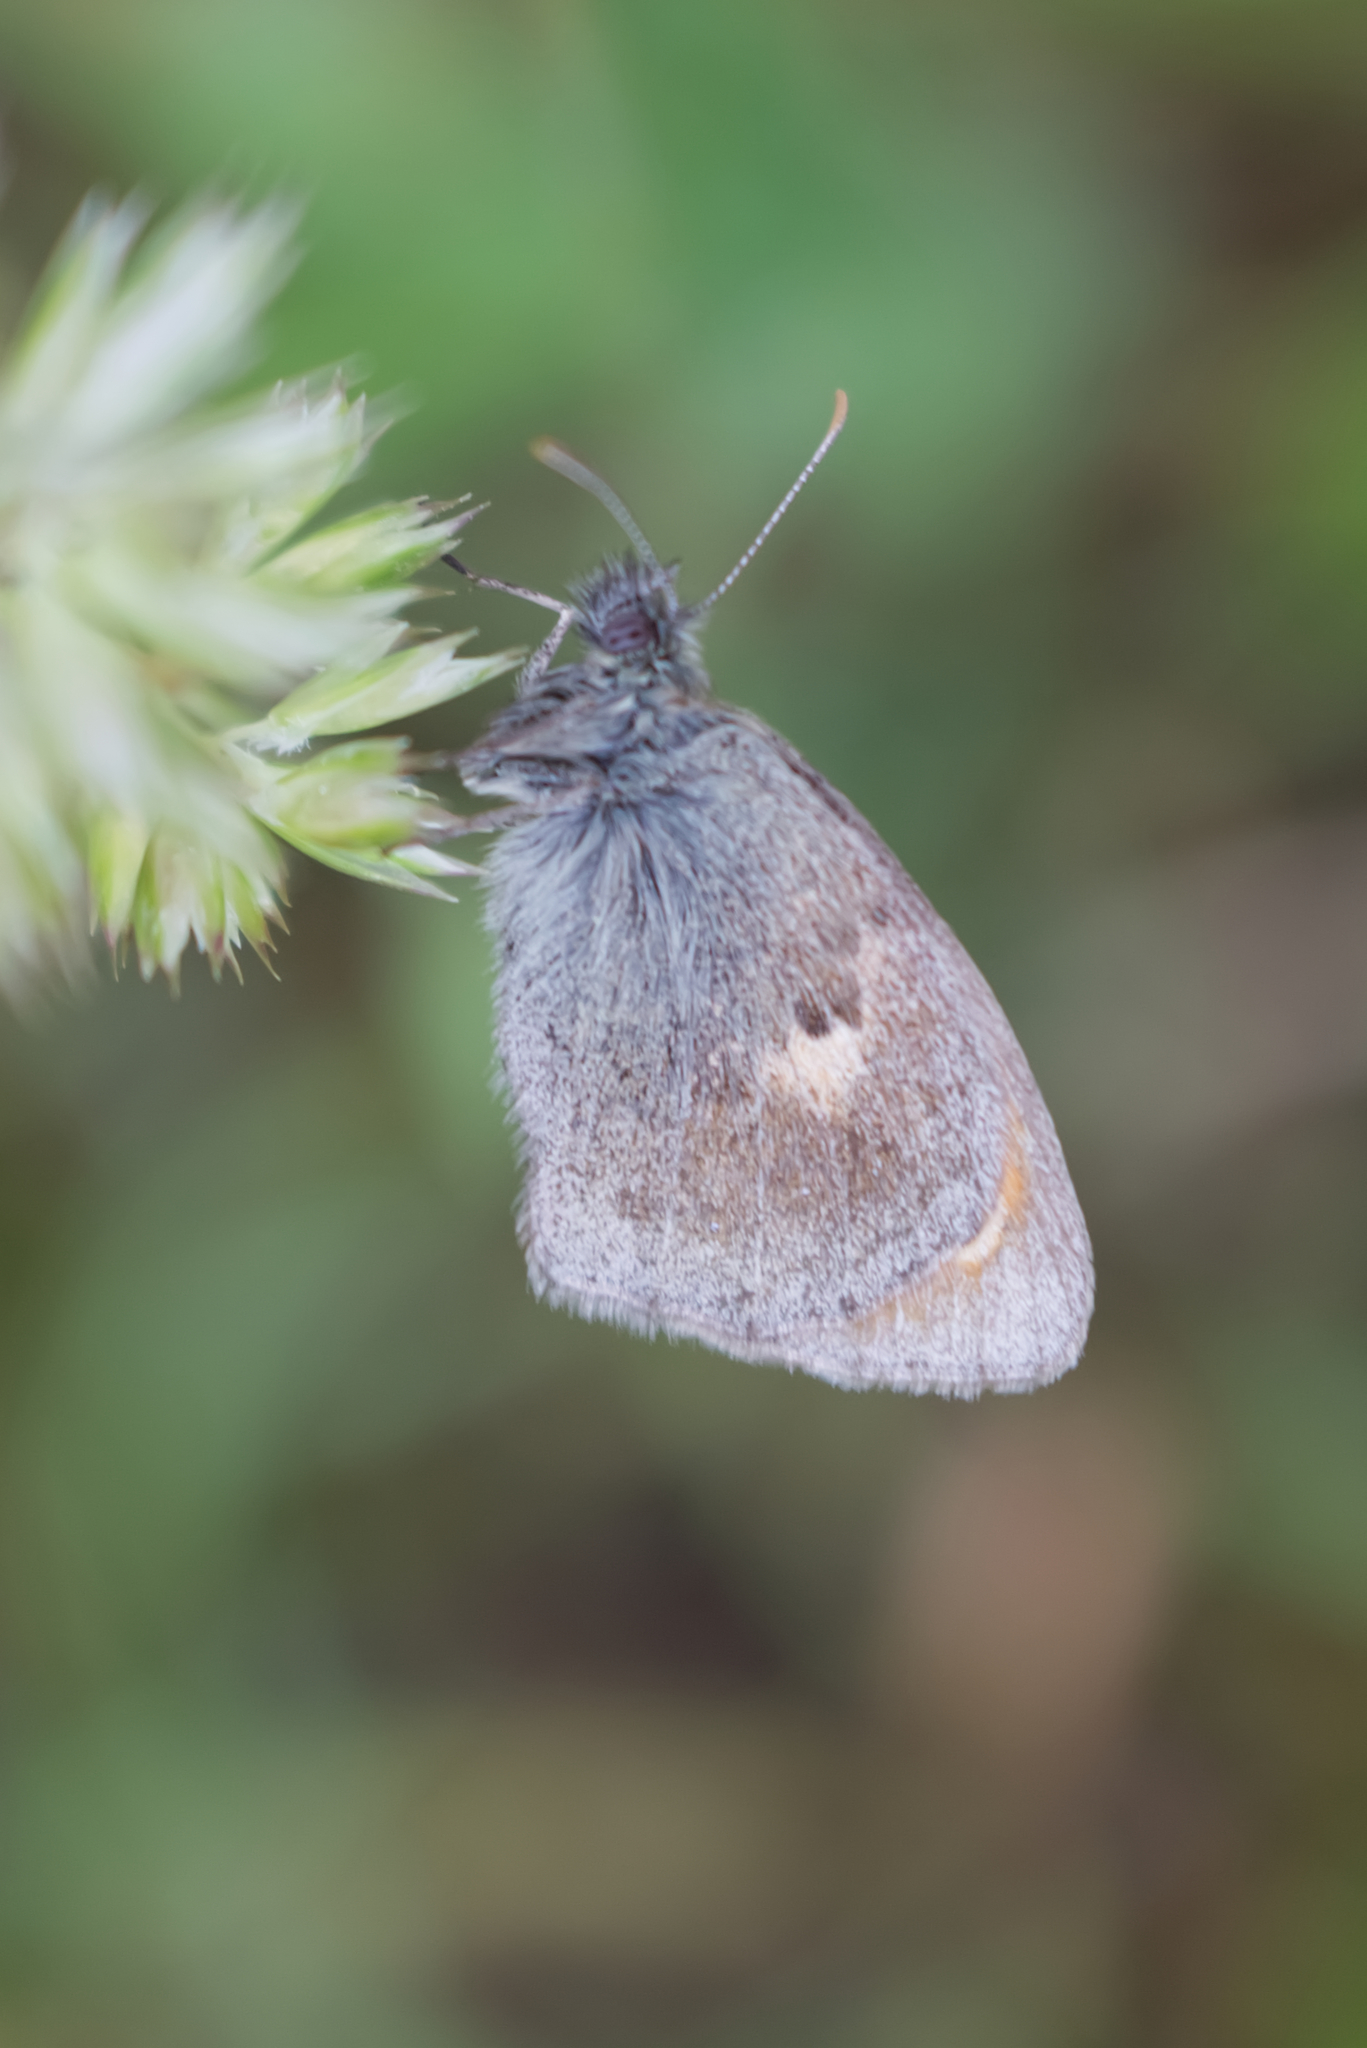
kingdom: Animalia
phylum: Arthropoda
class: Insecta
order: Lepidoptera
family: Nymphalidae
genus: Coenonympha
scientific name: Coenonympha pamphilus
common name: Small heath
